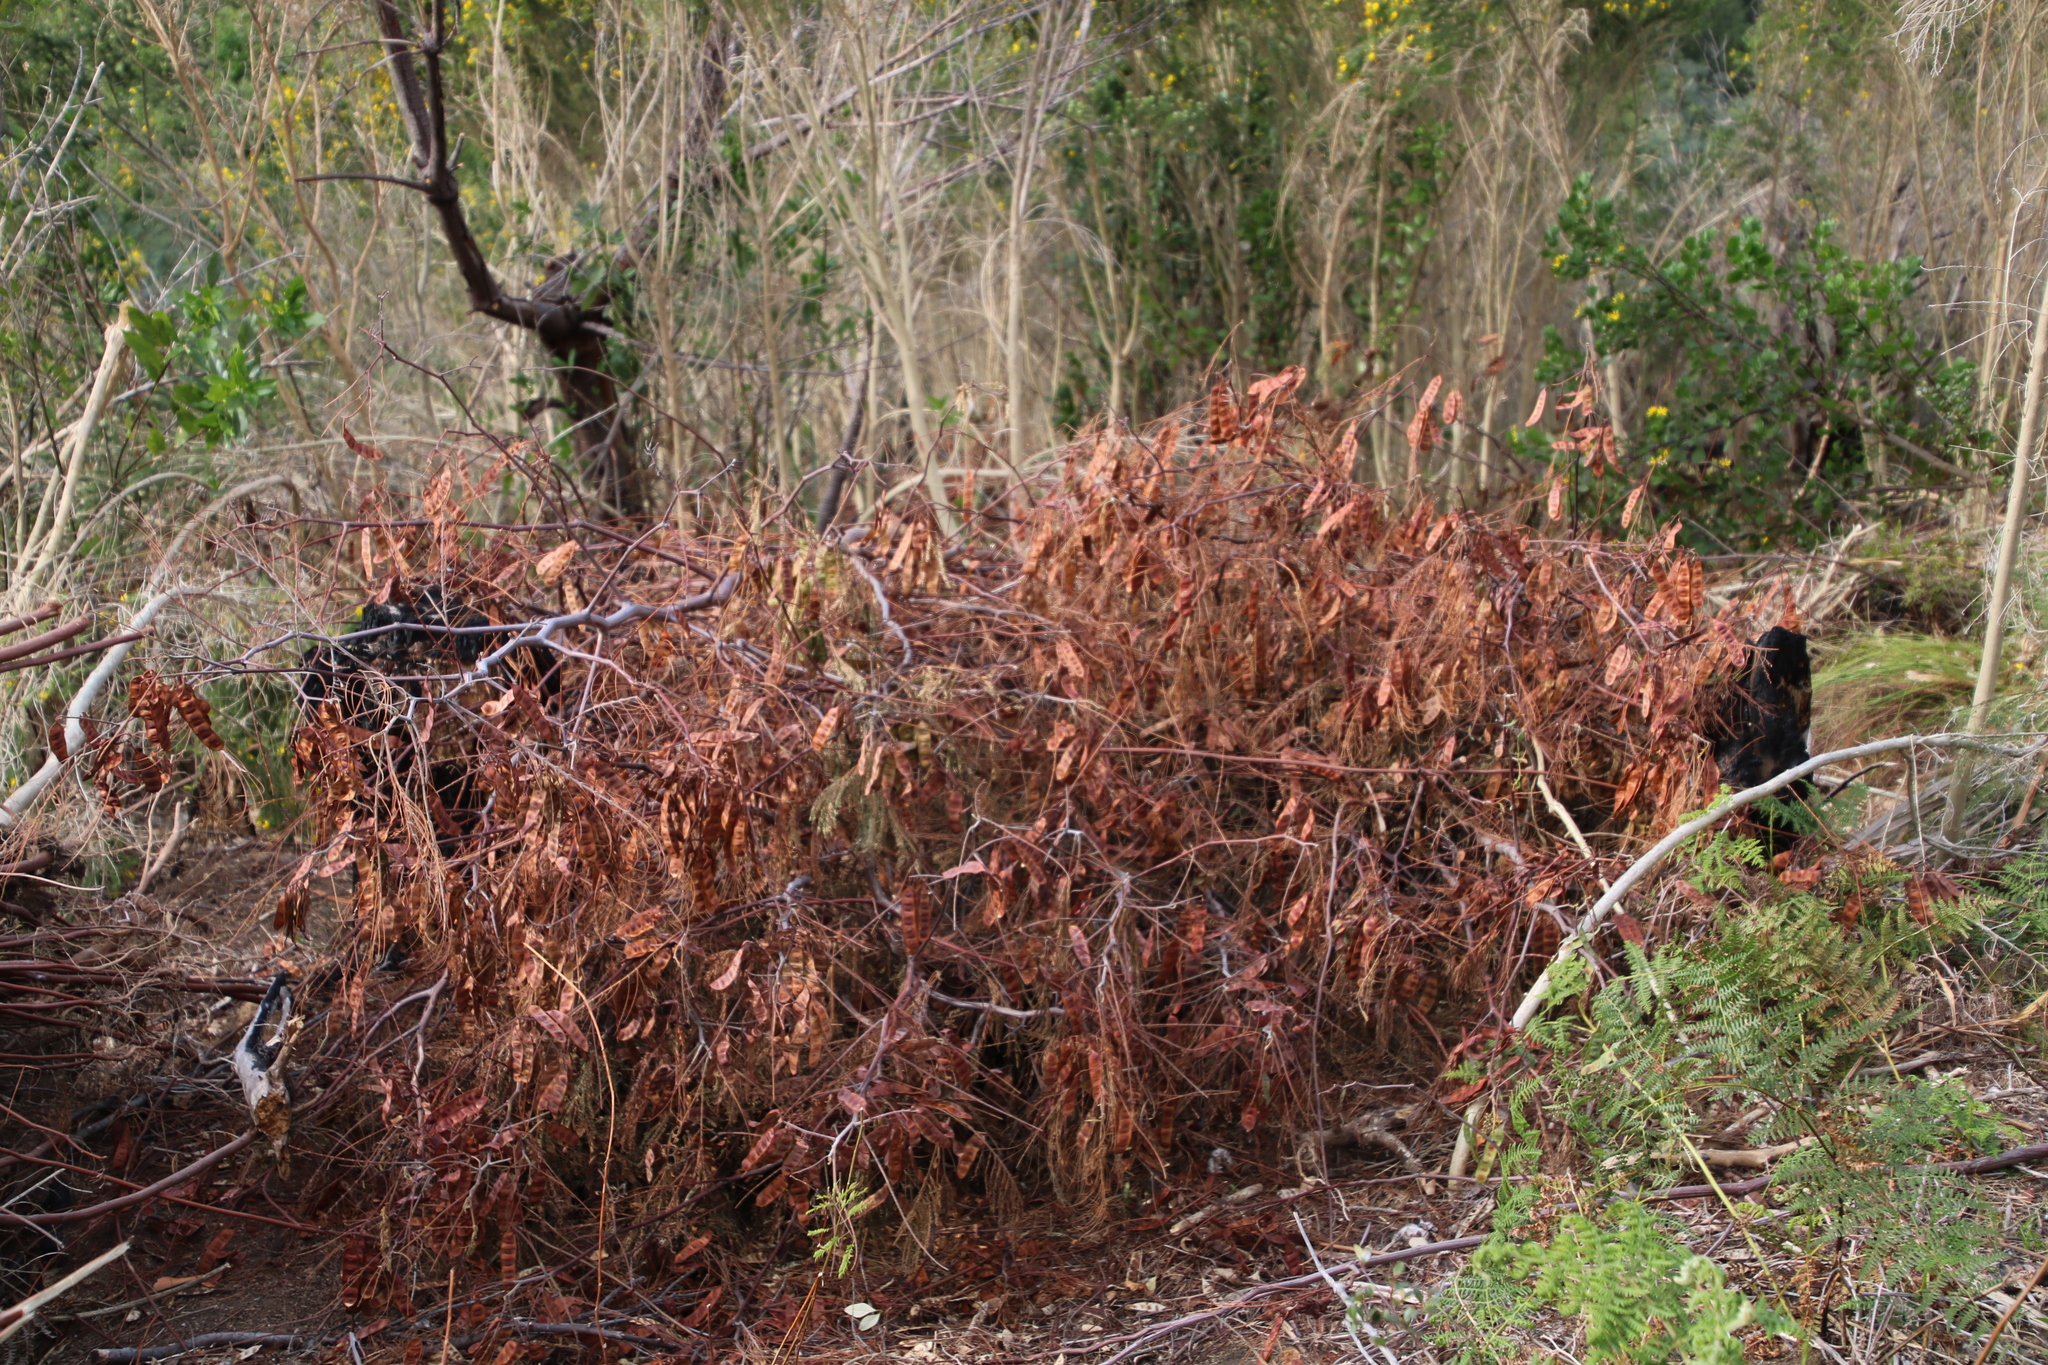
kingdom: Plantae
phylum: Tracheophyta
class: Magnoliopsida
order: Fabales
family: Fabaceae
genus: Paraserianthes
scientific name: Paraserianthes lophantha
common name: Plume albizia
